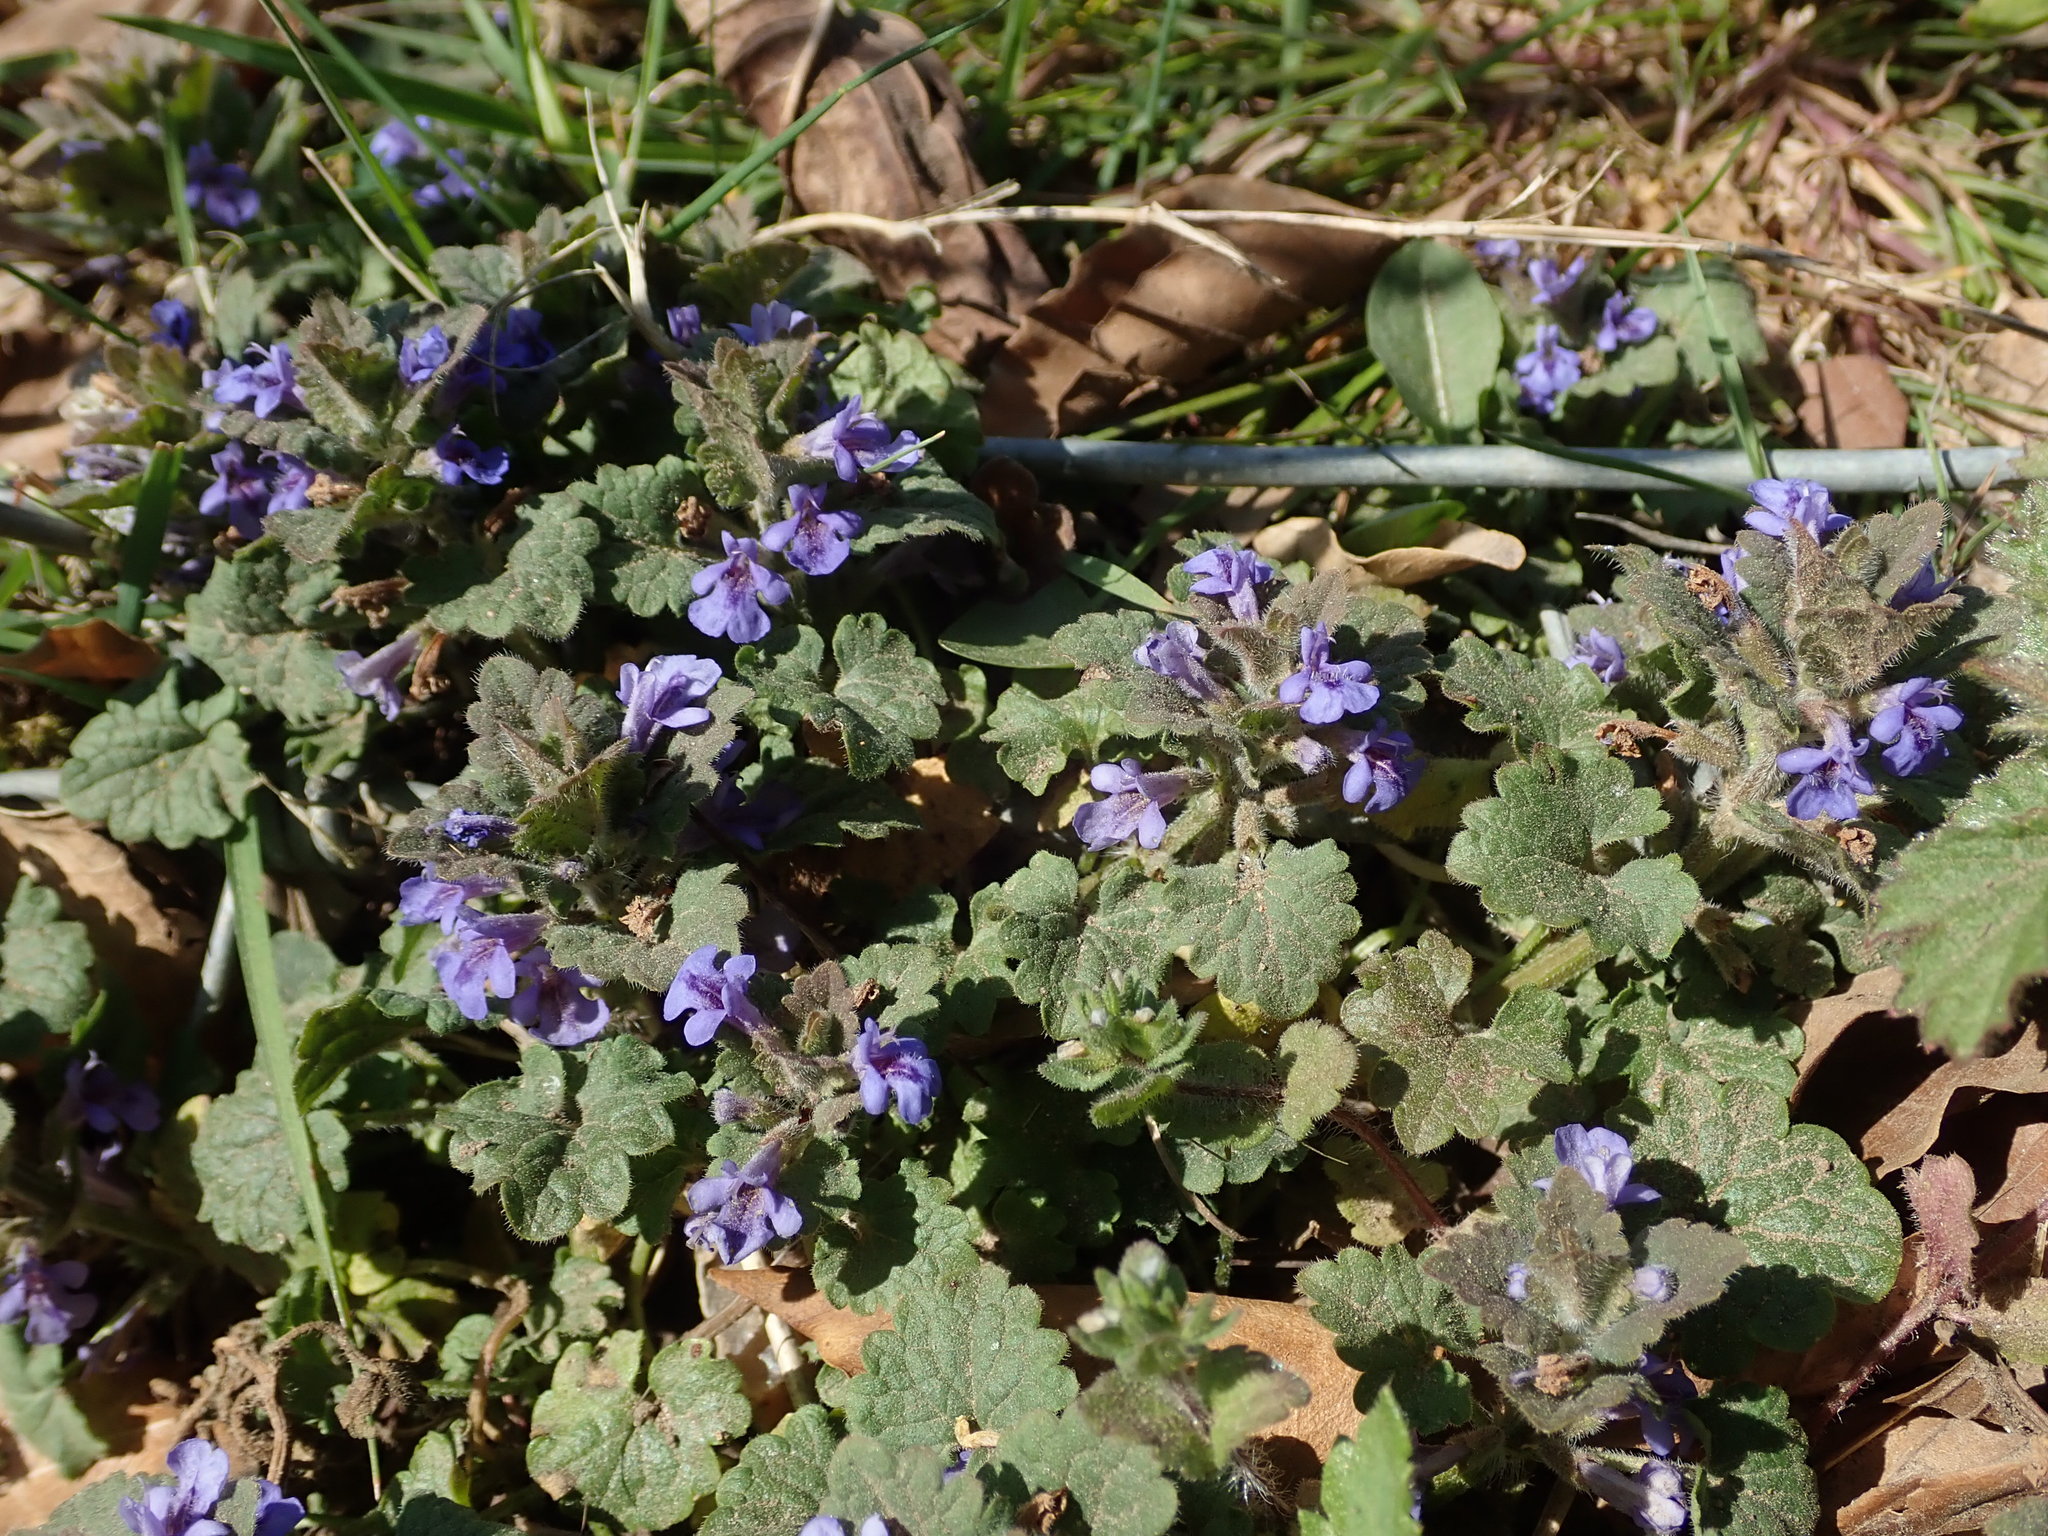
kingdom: Plantae
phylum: Tracheophyta
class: Magnoliopsida
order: Lamiales
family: Lamiaceae
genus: Glechoma
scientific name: Glechoma hederacea
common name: Ground ivy
